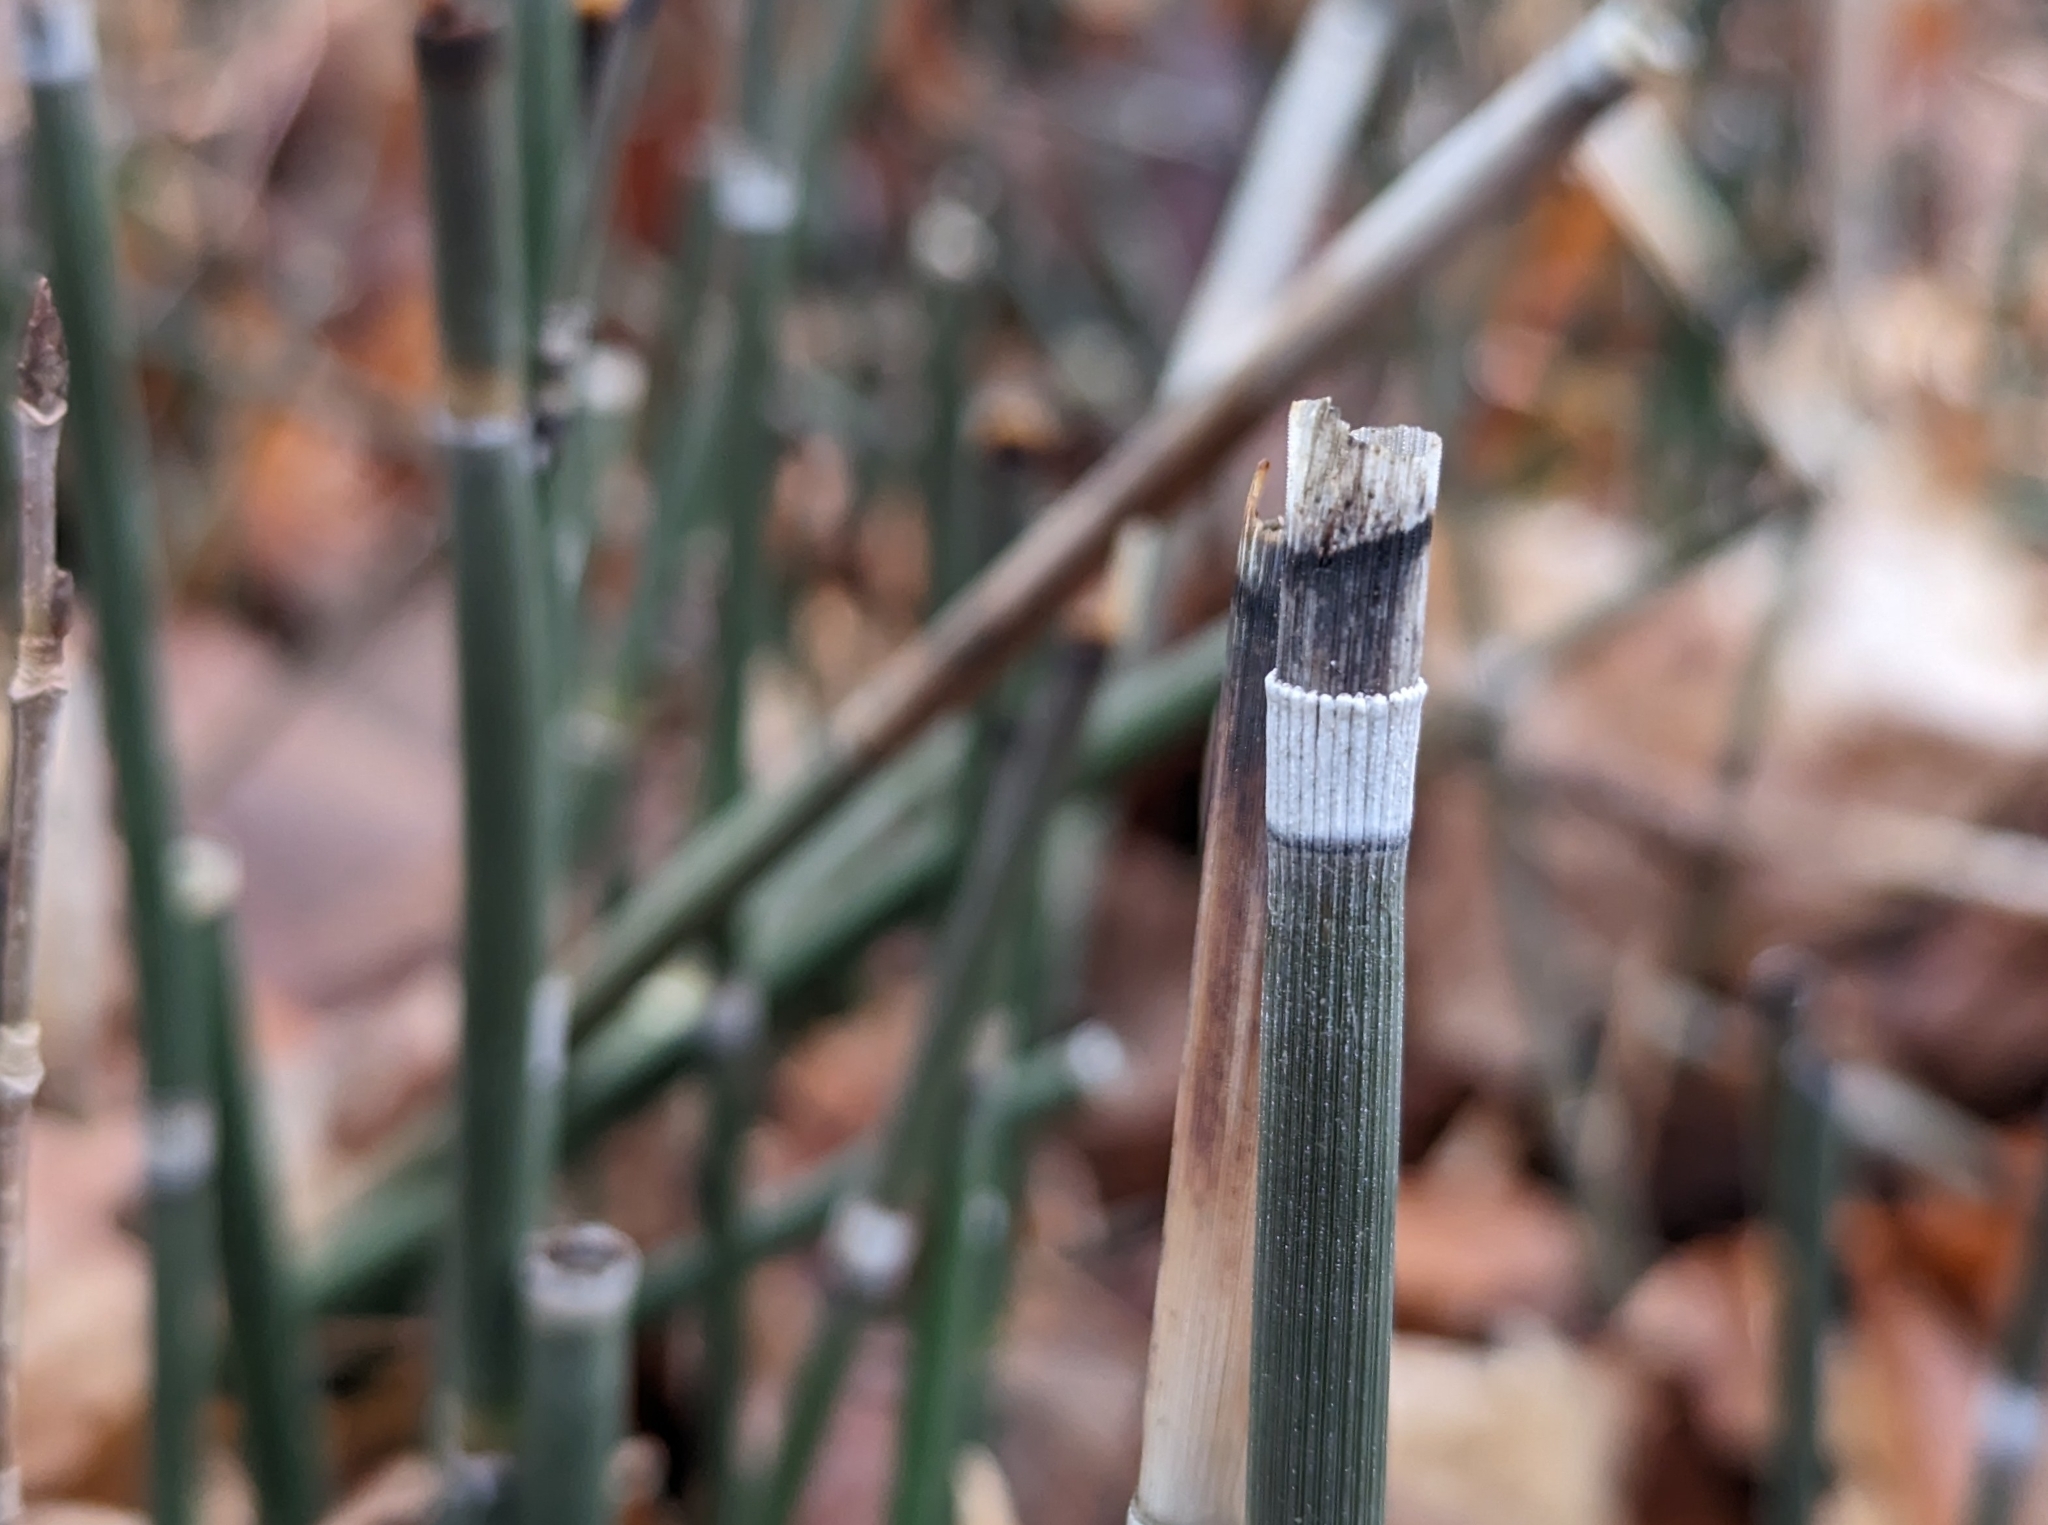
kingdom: Plantae
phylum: Tracheophyta
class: Polypodiopsida
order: Equisetales
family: Equisetaceae
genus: Equisetum
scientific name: Equisetum praealtum
